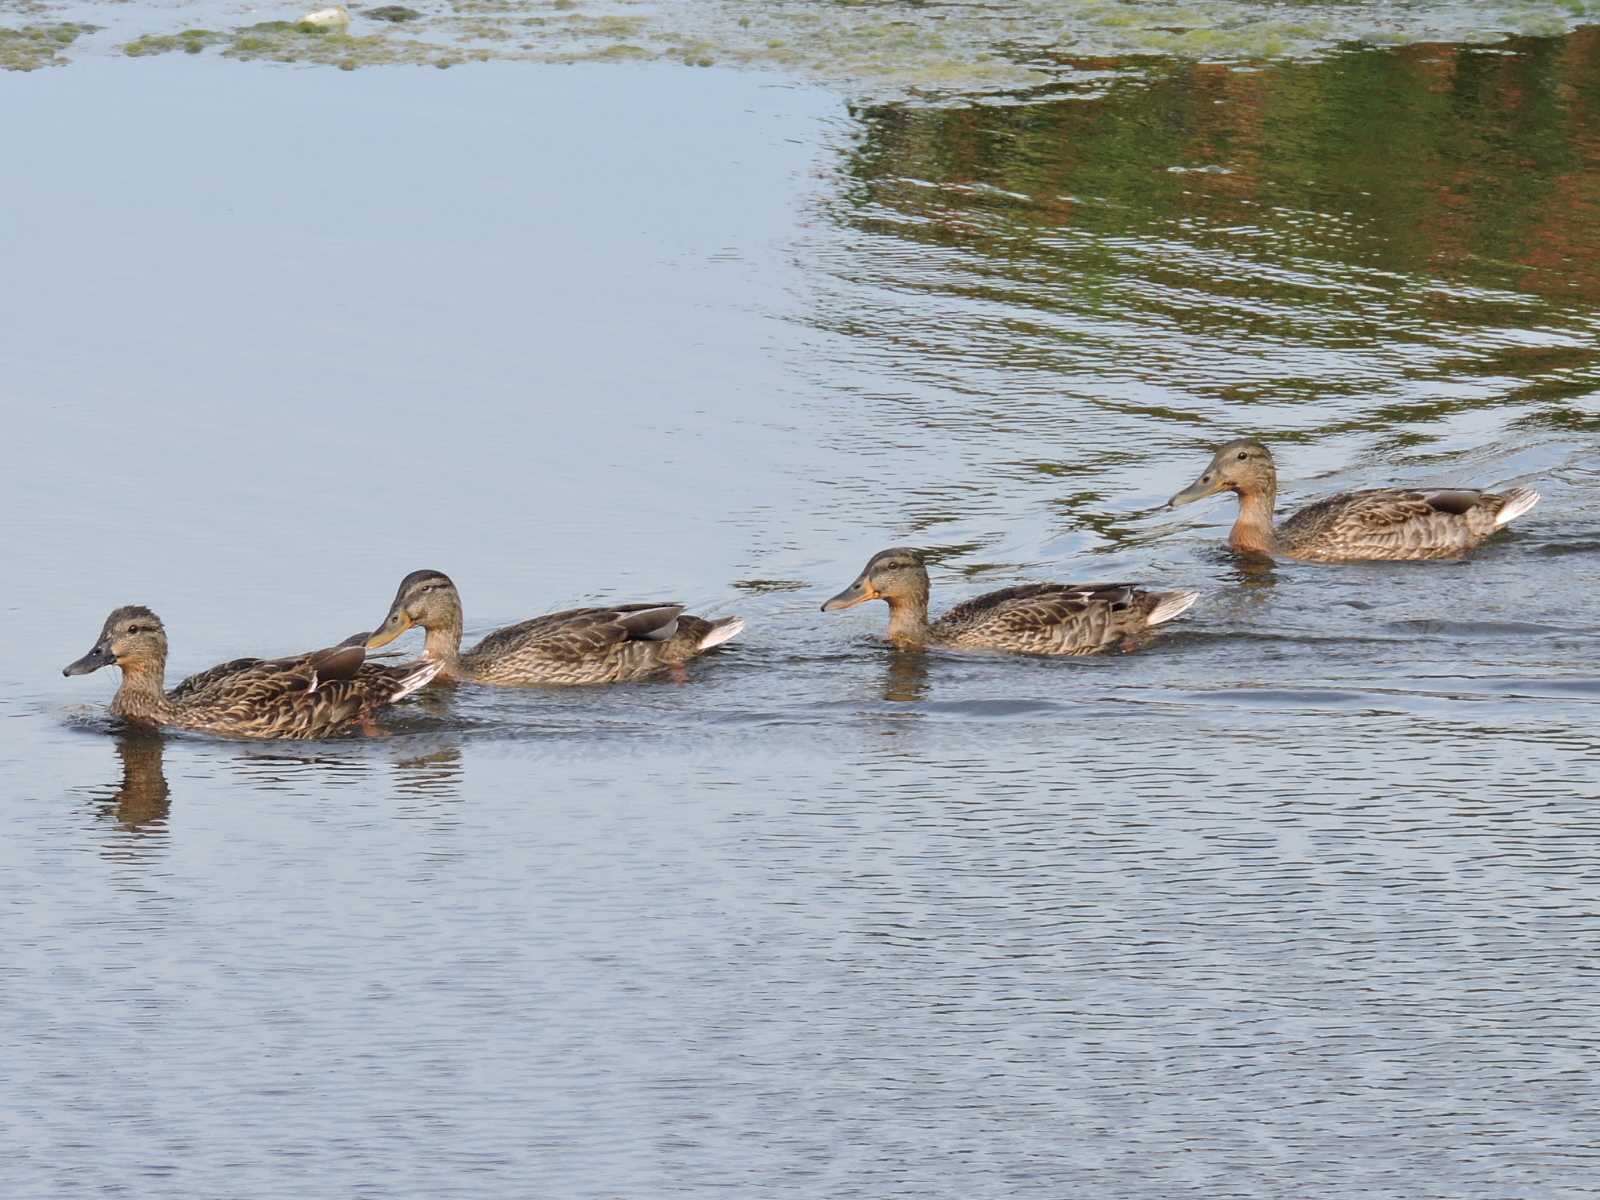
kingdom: Animalia
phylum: Chordata
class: Aves
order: Anseriformes
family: Anatidae
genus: Anas
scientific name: Anas platyrhynchos
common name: Mallard
